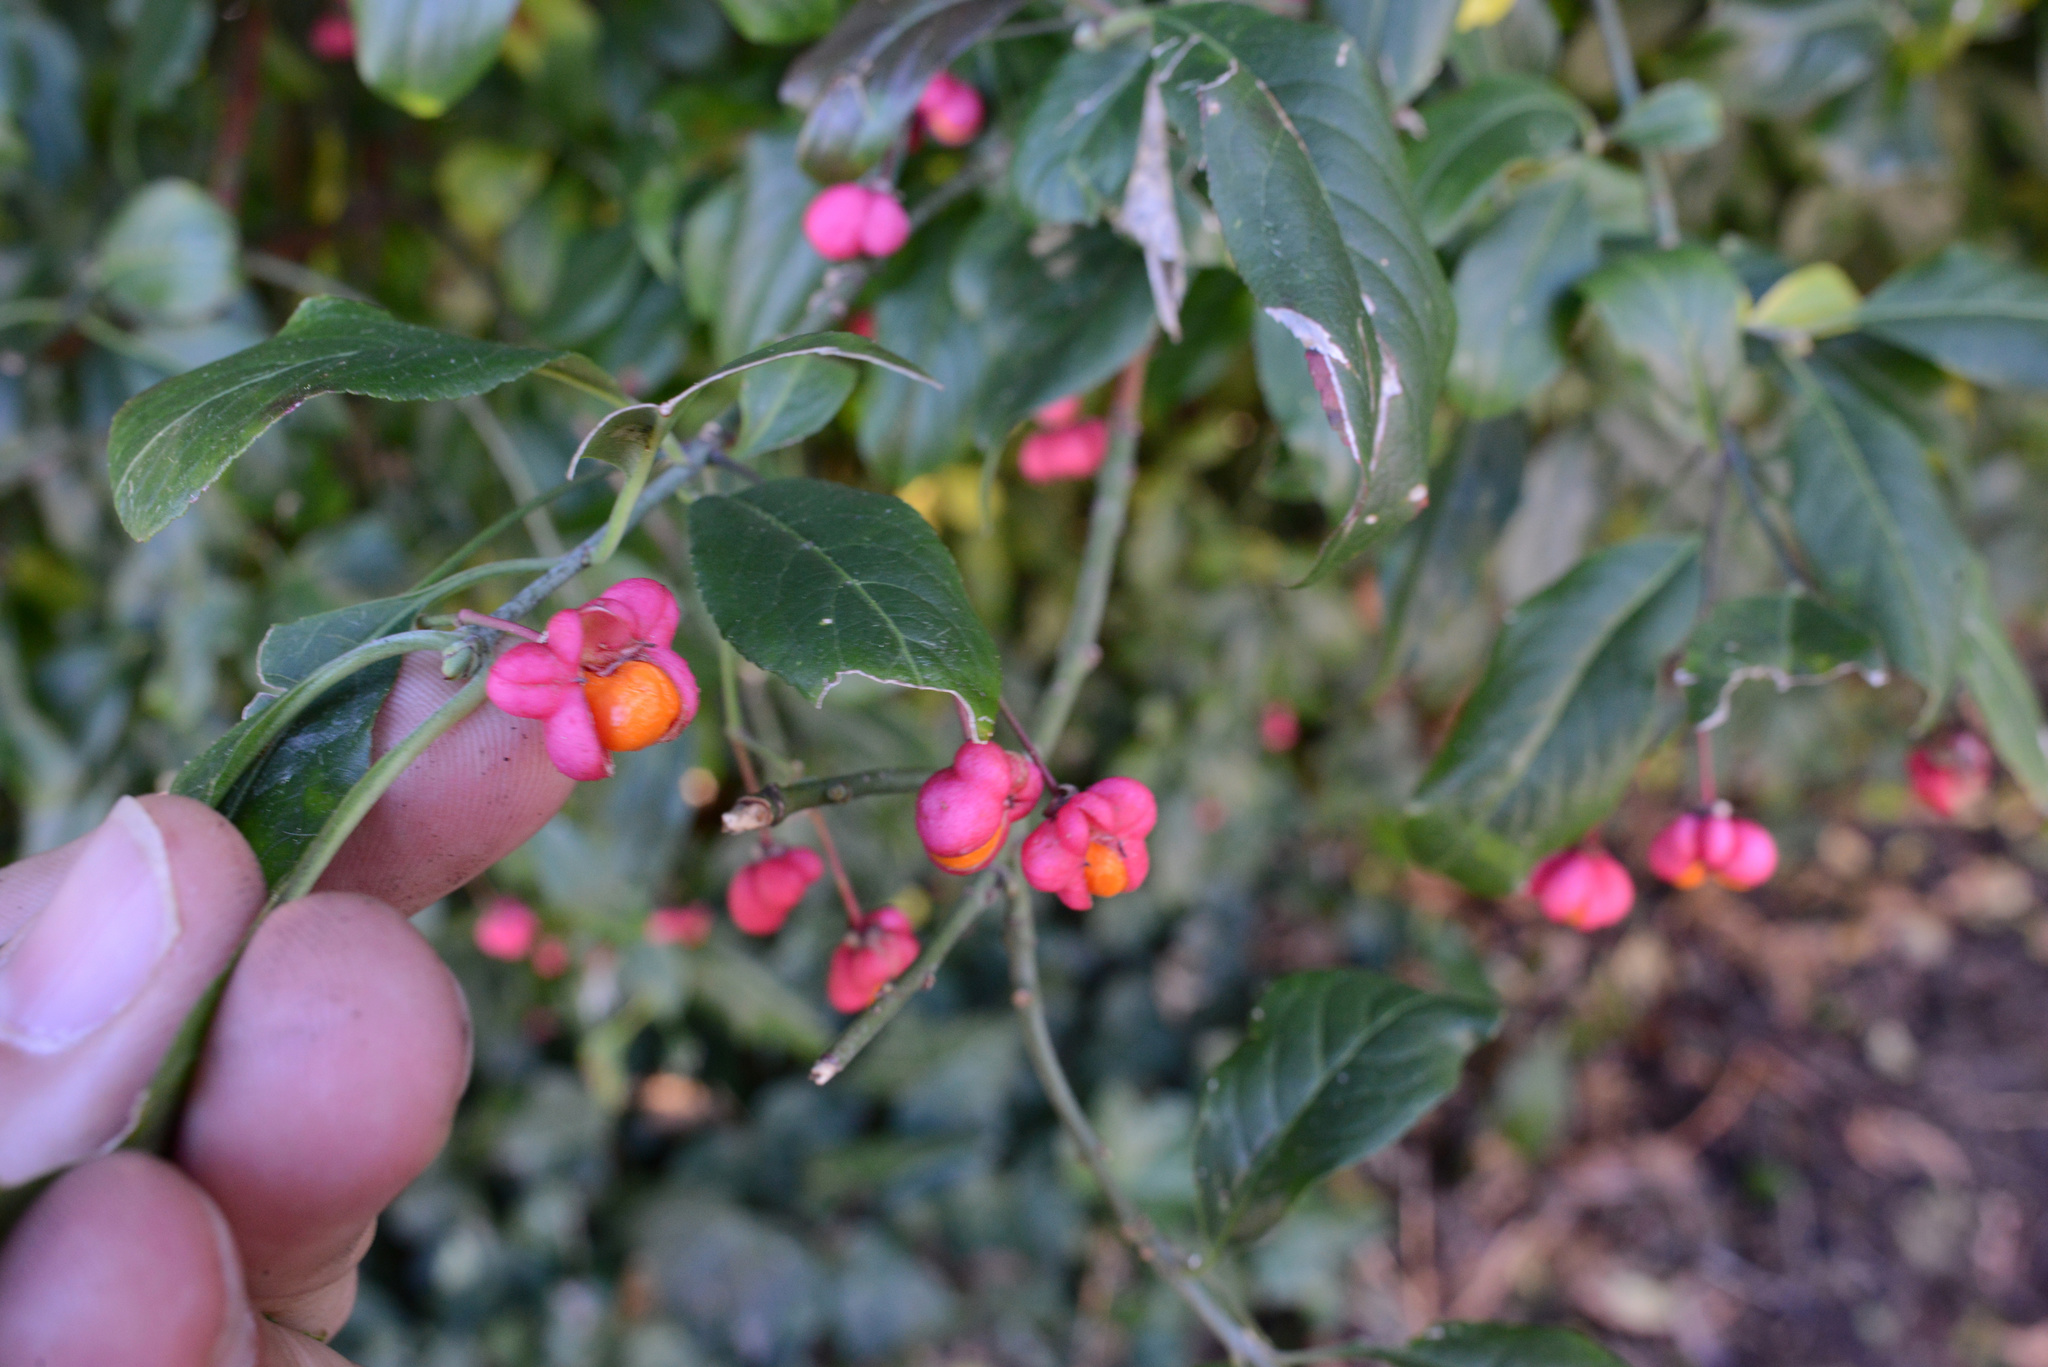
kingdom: Plantae
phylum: Tracheophyta
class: Magnoliopsida
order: Celastrales
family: Celastraceae
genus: Euonymus
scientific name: Euonymus europaeus
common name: Spindle
